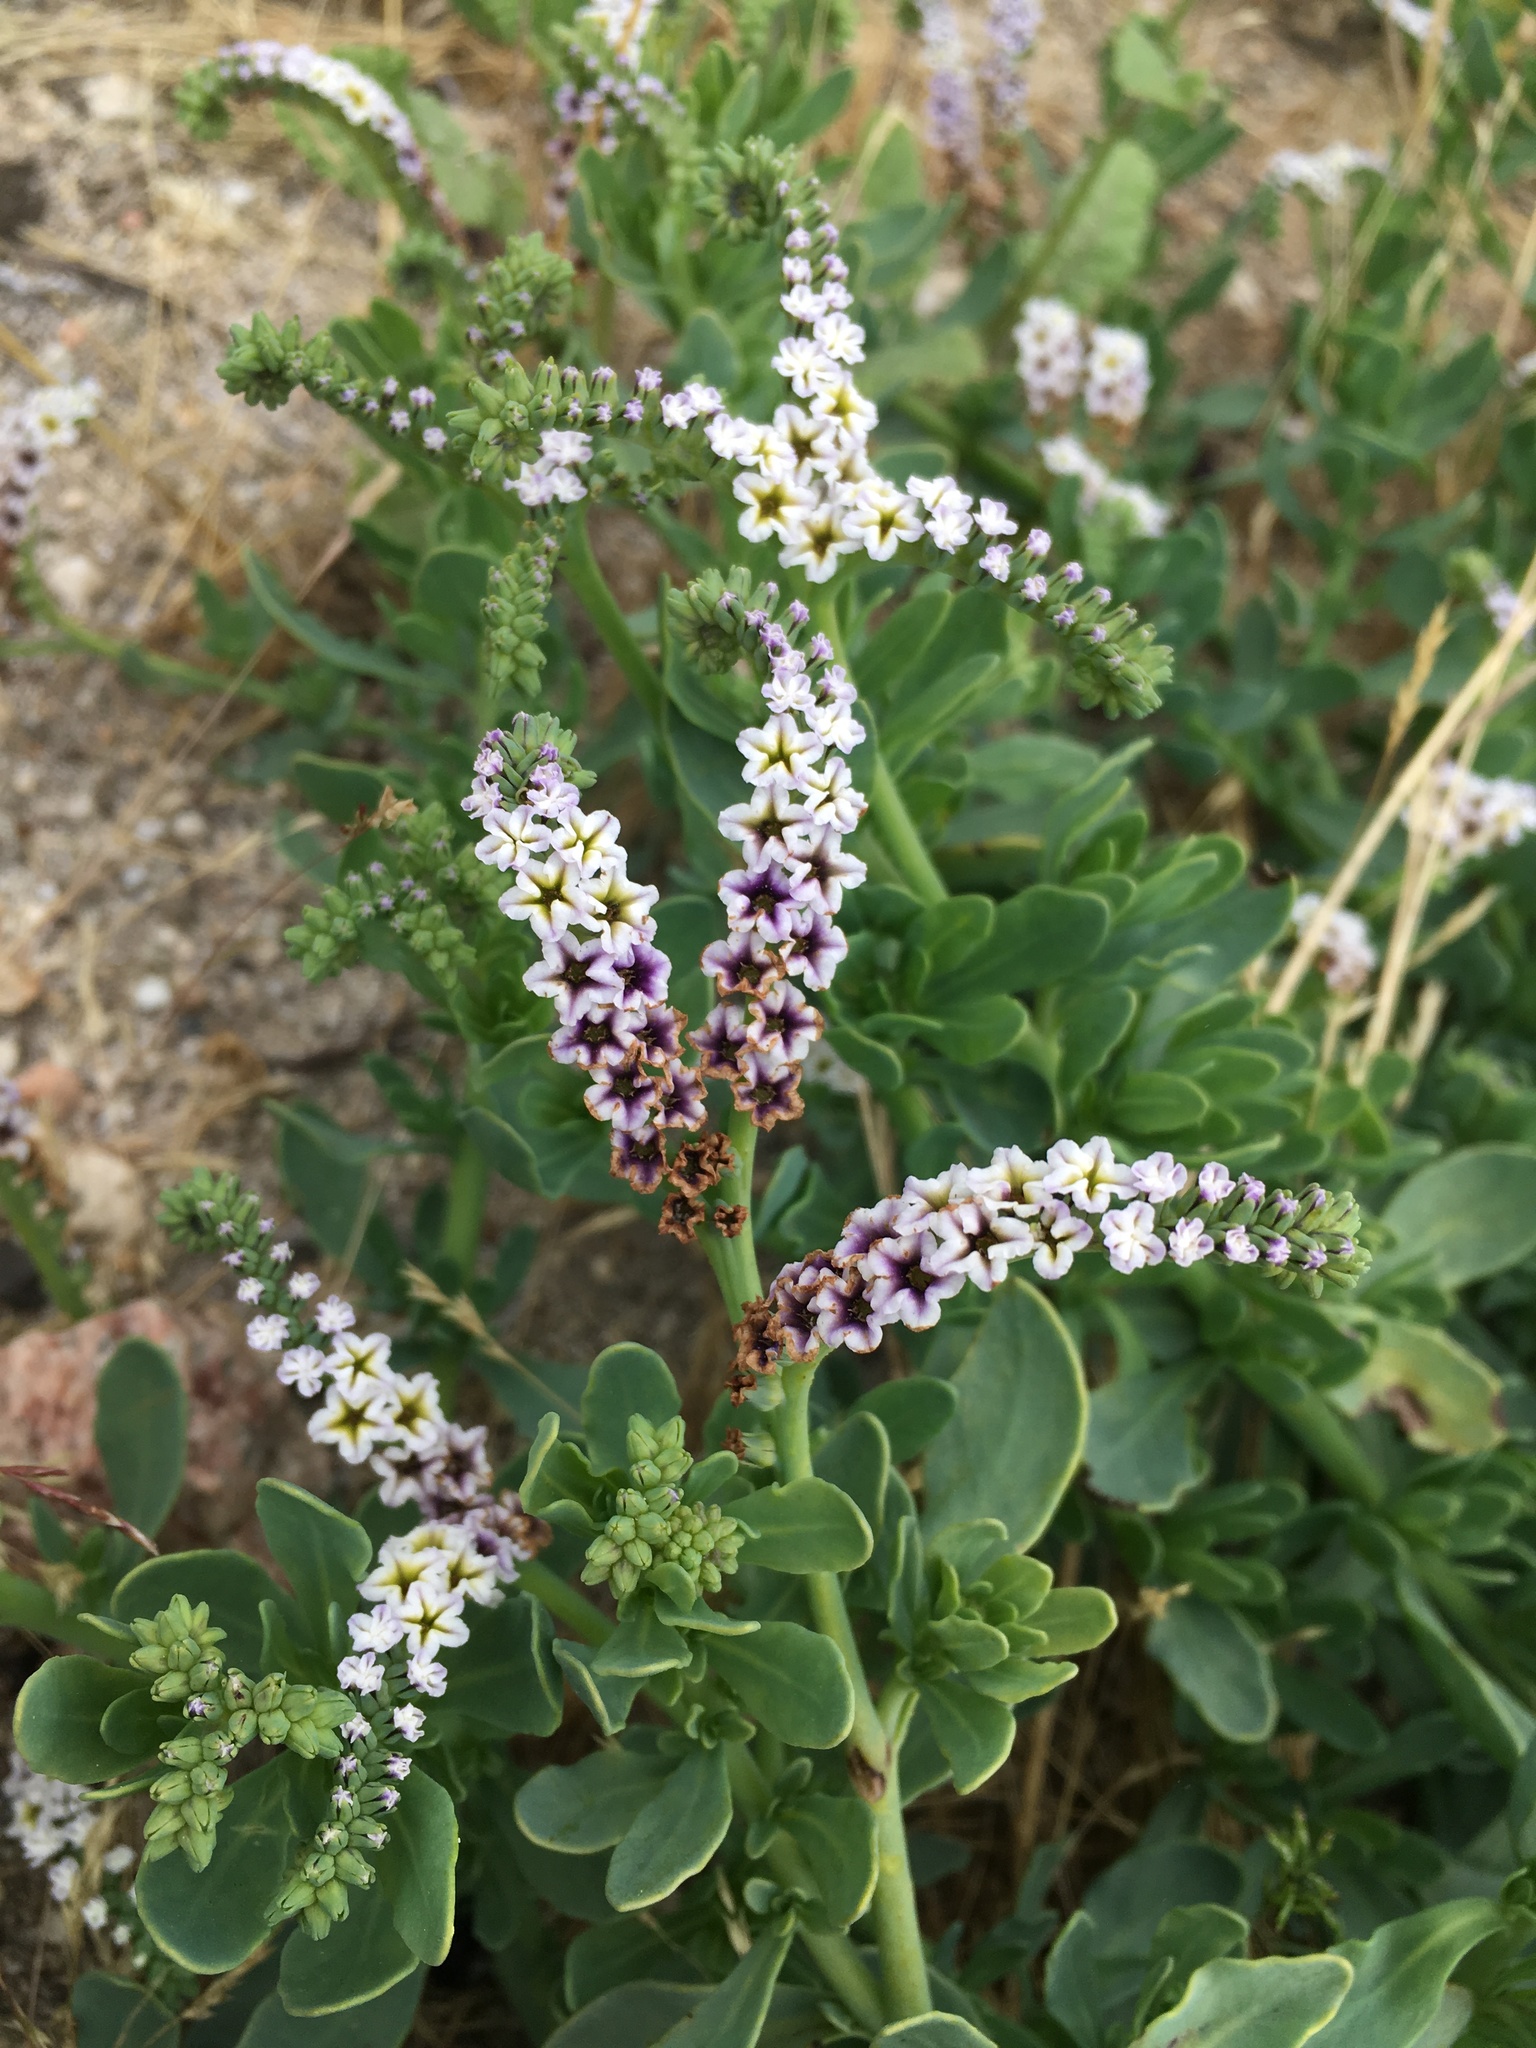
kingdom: Plantae
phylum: Tracheophyta
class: Magnoliopsida
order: Boraginales
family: Heliotropiaceae
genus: Heliotropium
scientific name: Heliotropium curassavicum
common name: Seaside heliotrope
